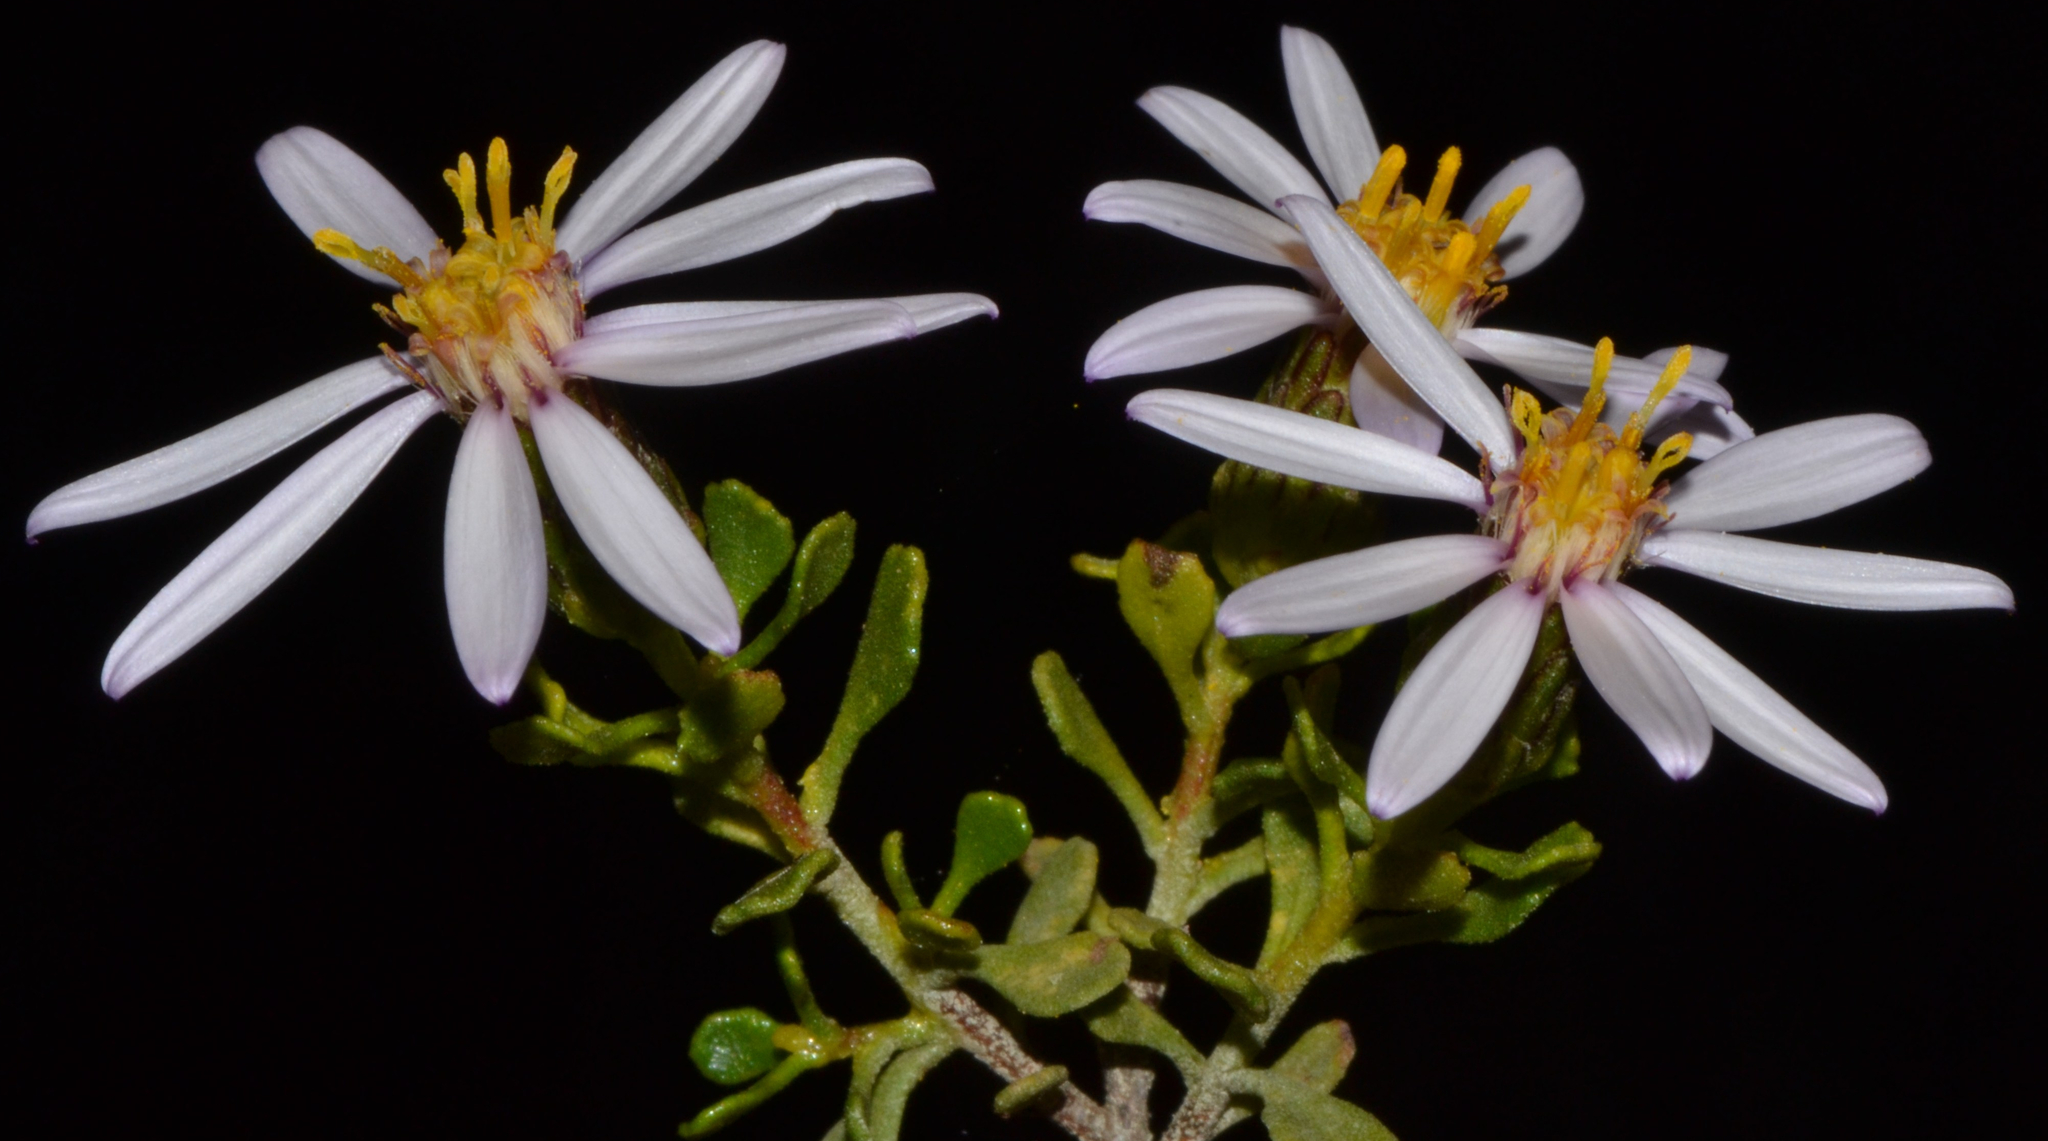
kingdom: Plantae
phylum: Tracheophyta
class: Magnoliopsida
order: Asterales
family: Asteraceae
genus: Walsholaria
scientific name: Walsholaria muelleri
